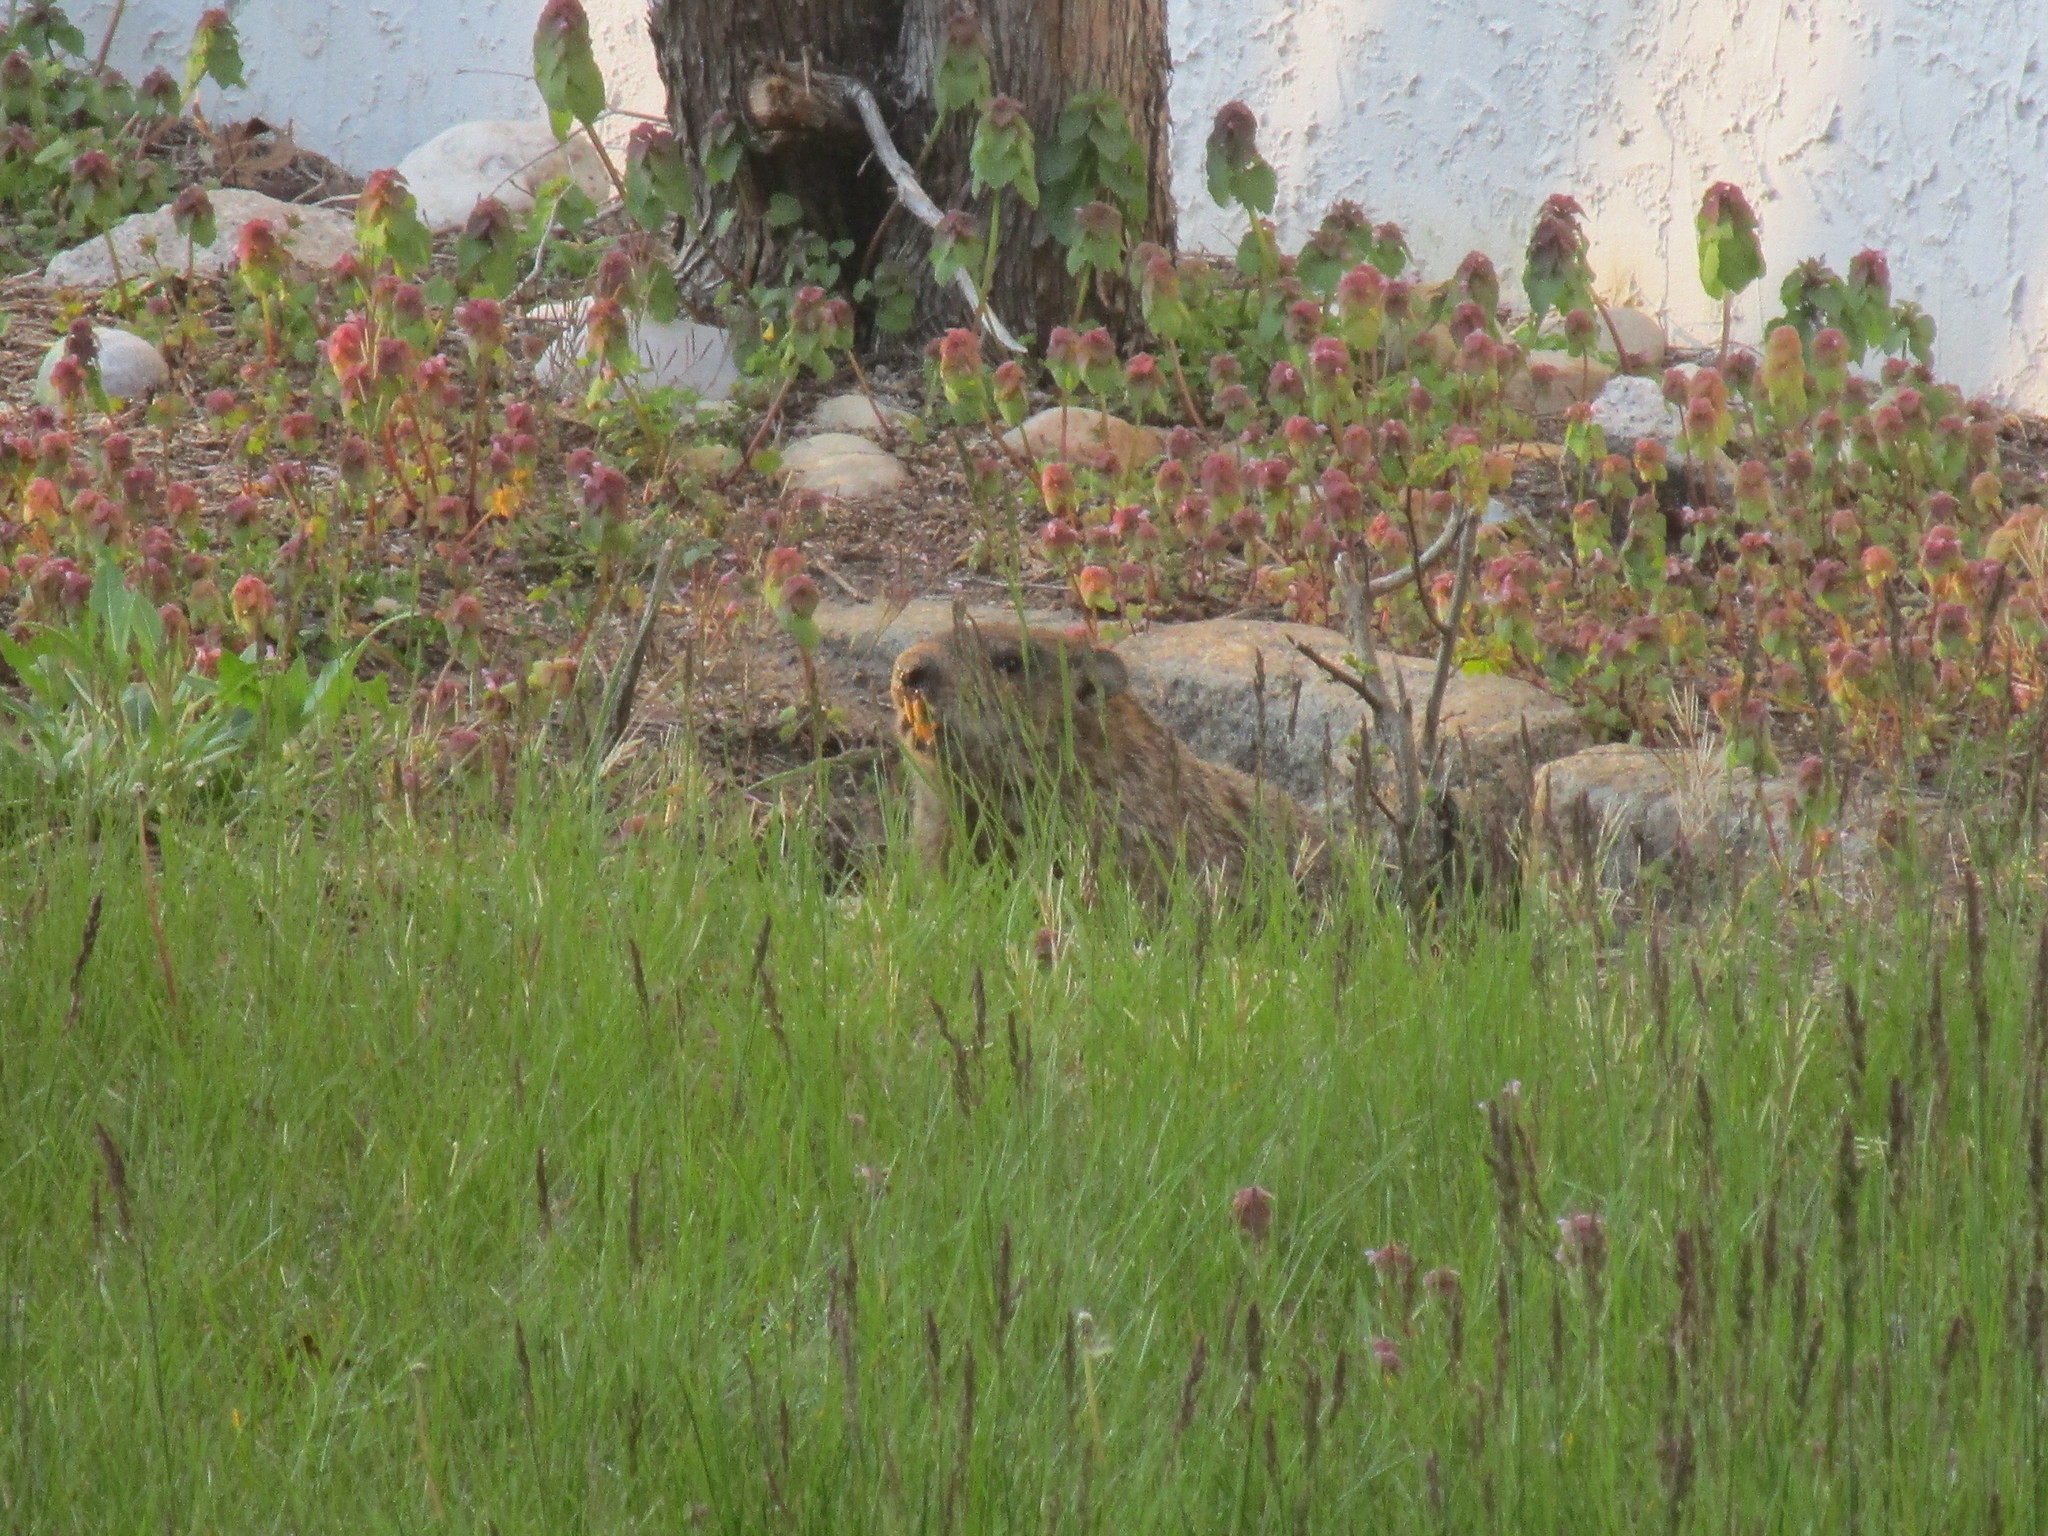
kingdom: Animalia
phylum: Chordata
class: Mammalia
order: Rodentia
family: Sciuridae
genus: Marmota
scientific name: Marmota monax
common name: Groundhog
